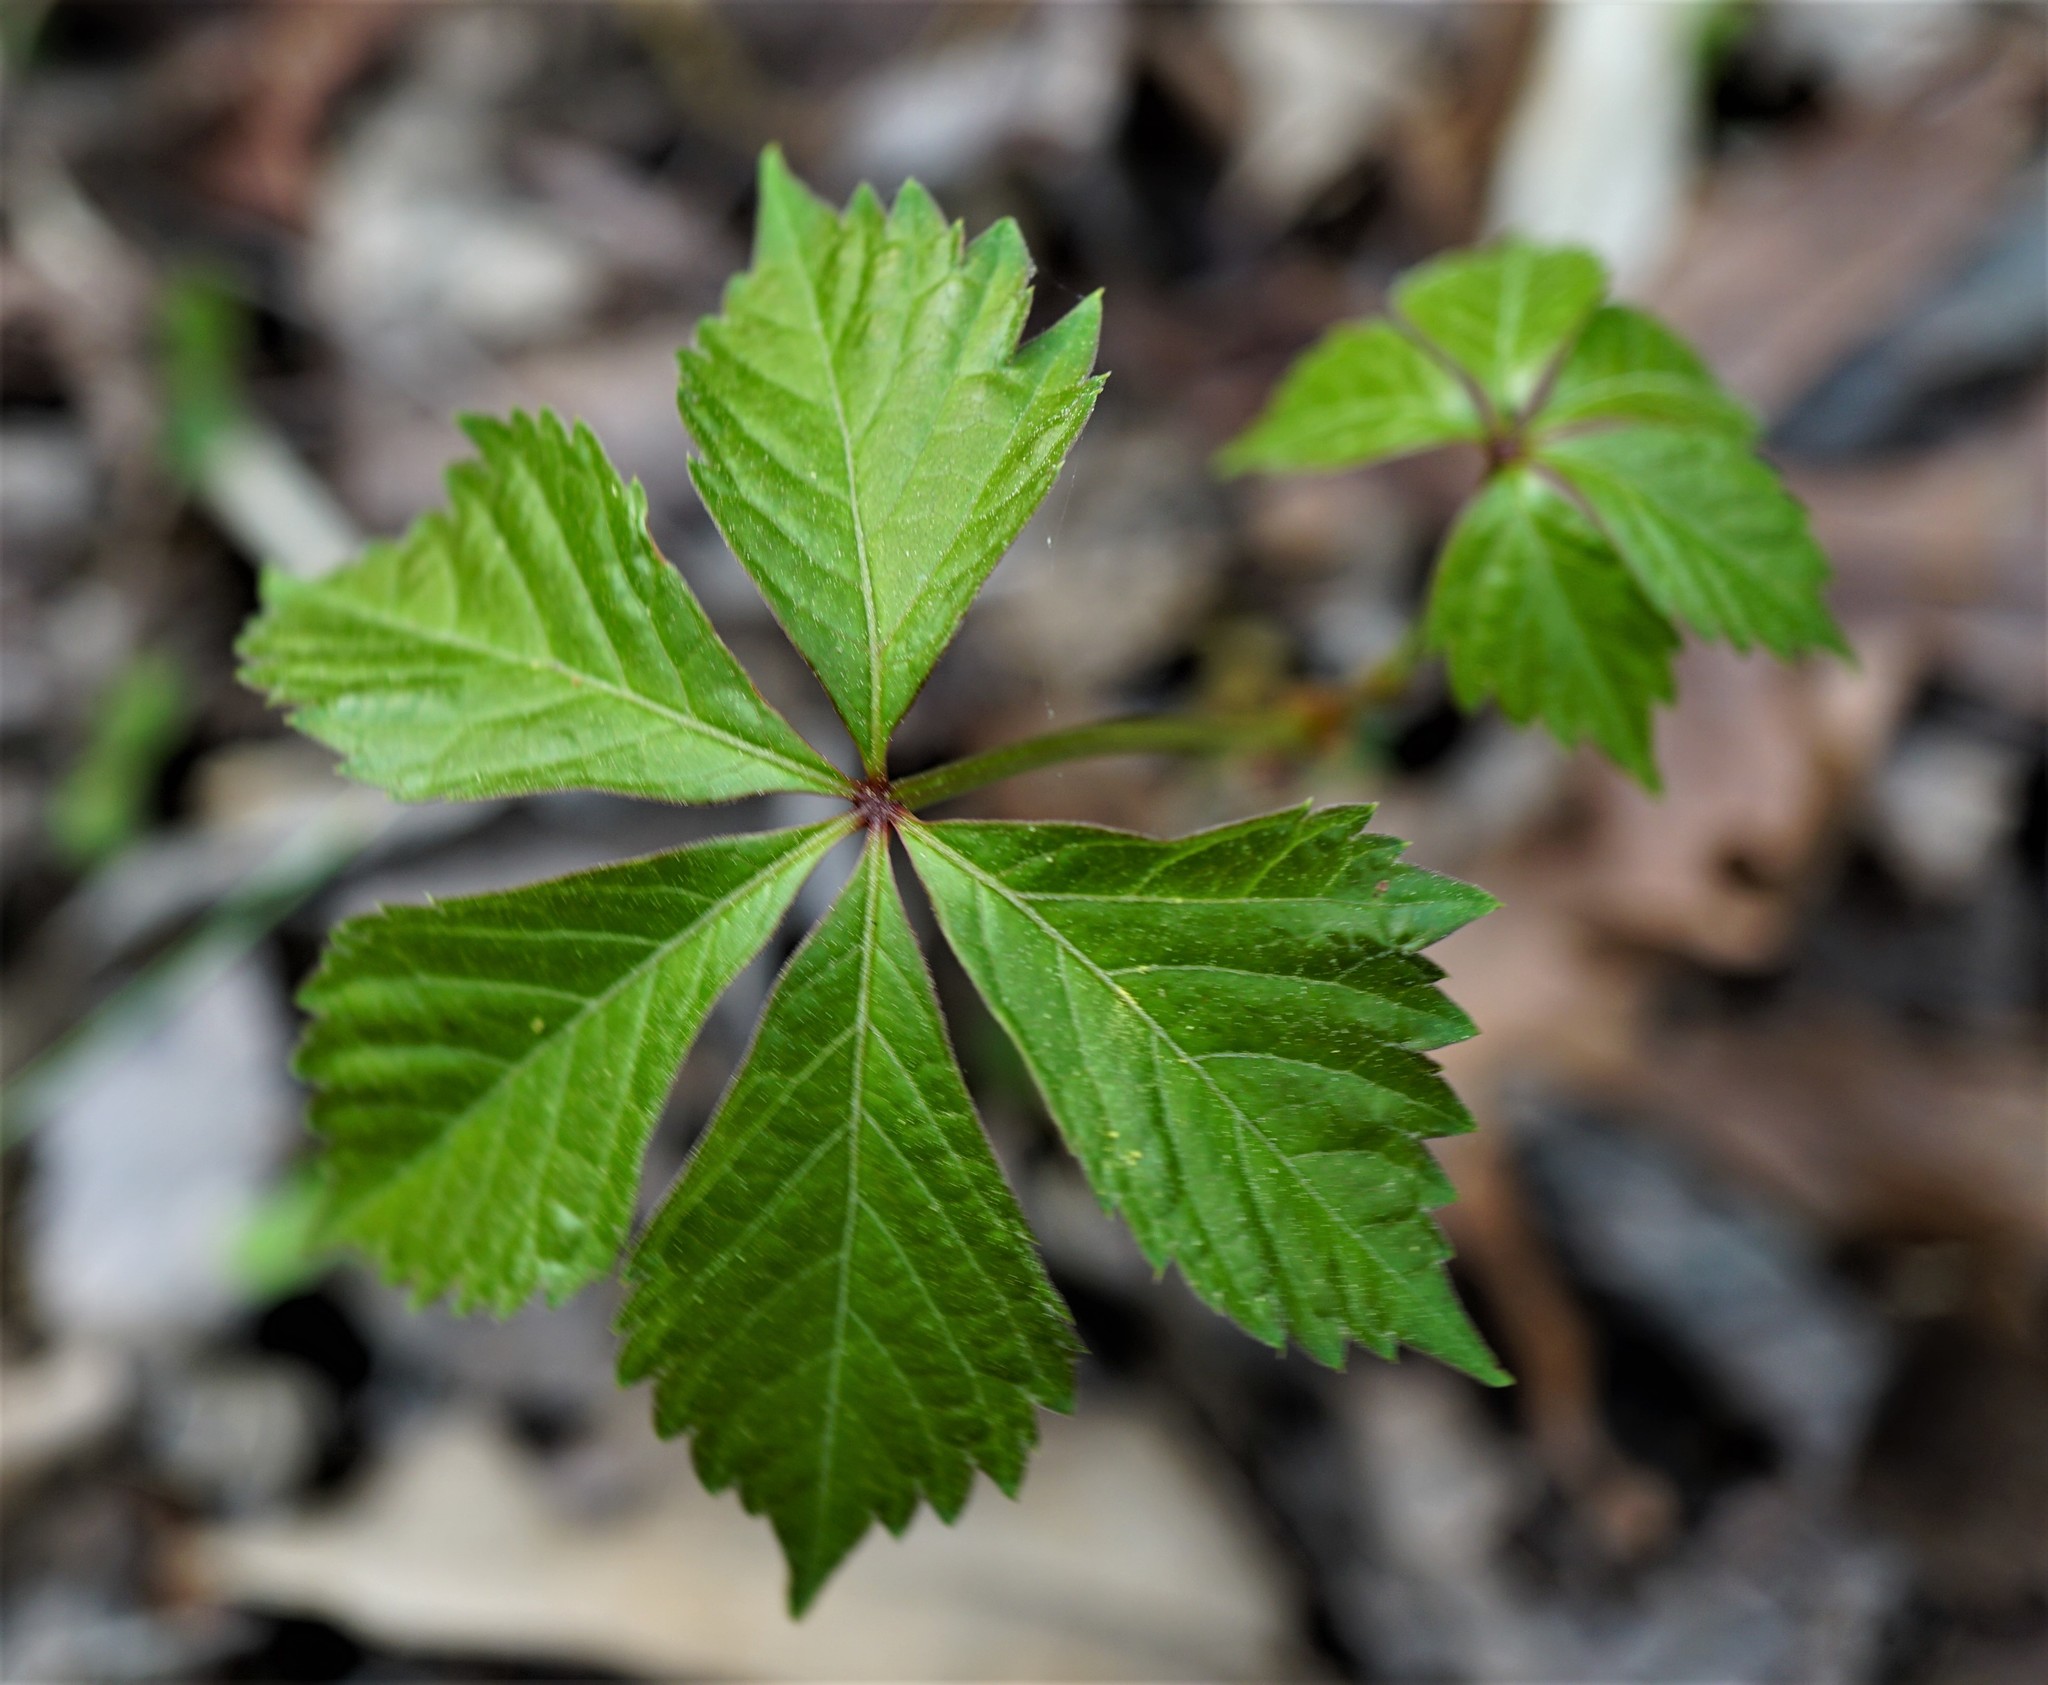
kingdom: Plantae
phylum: Tracheophyta
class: Magnoliopsida
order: Vitales
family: Vitaceae
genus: Parthenocissus
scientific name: Parthenocissus quinquefolia
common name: Virginia-creeper
